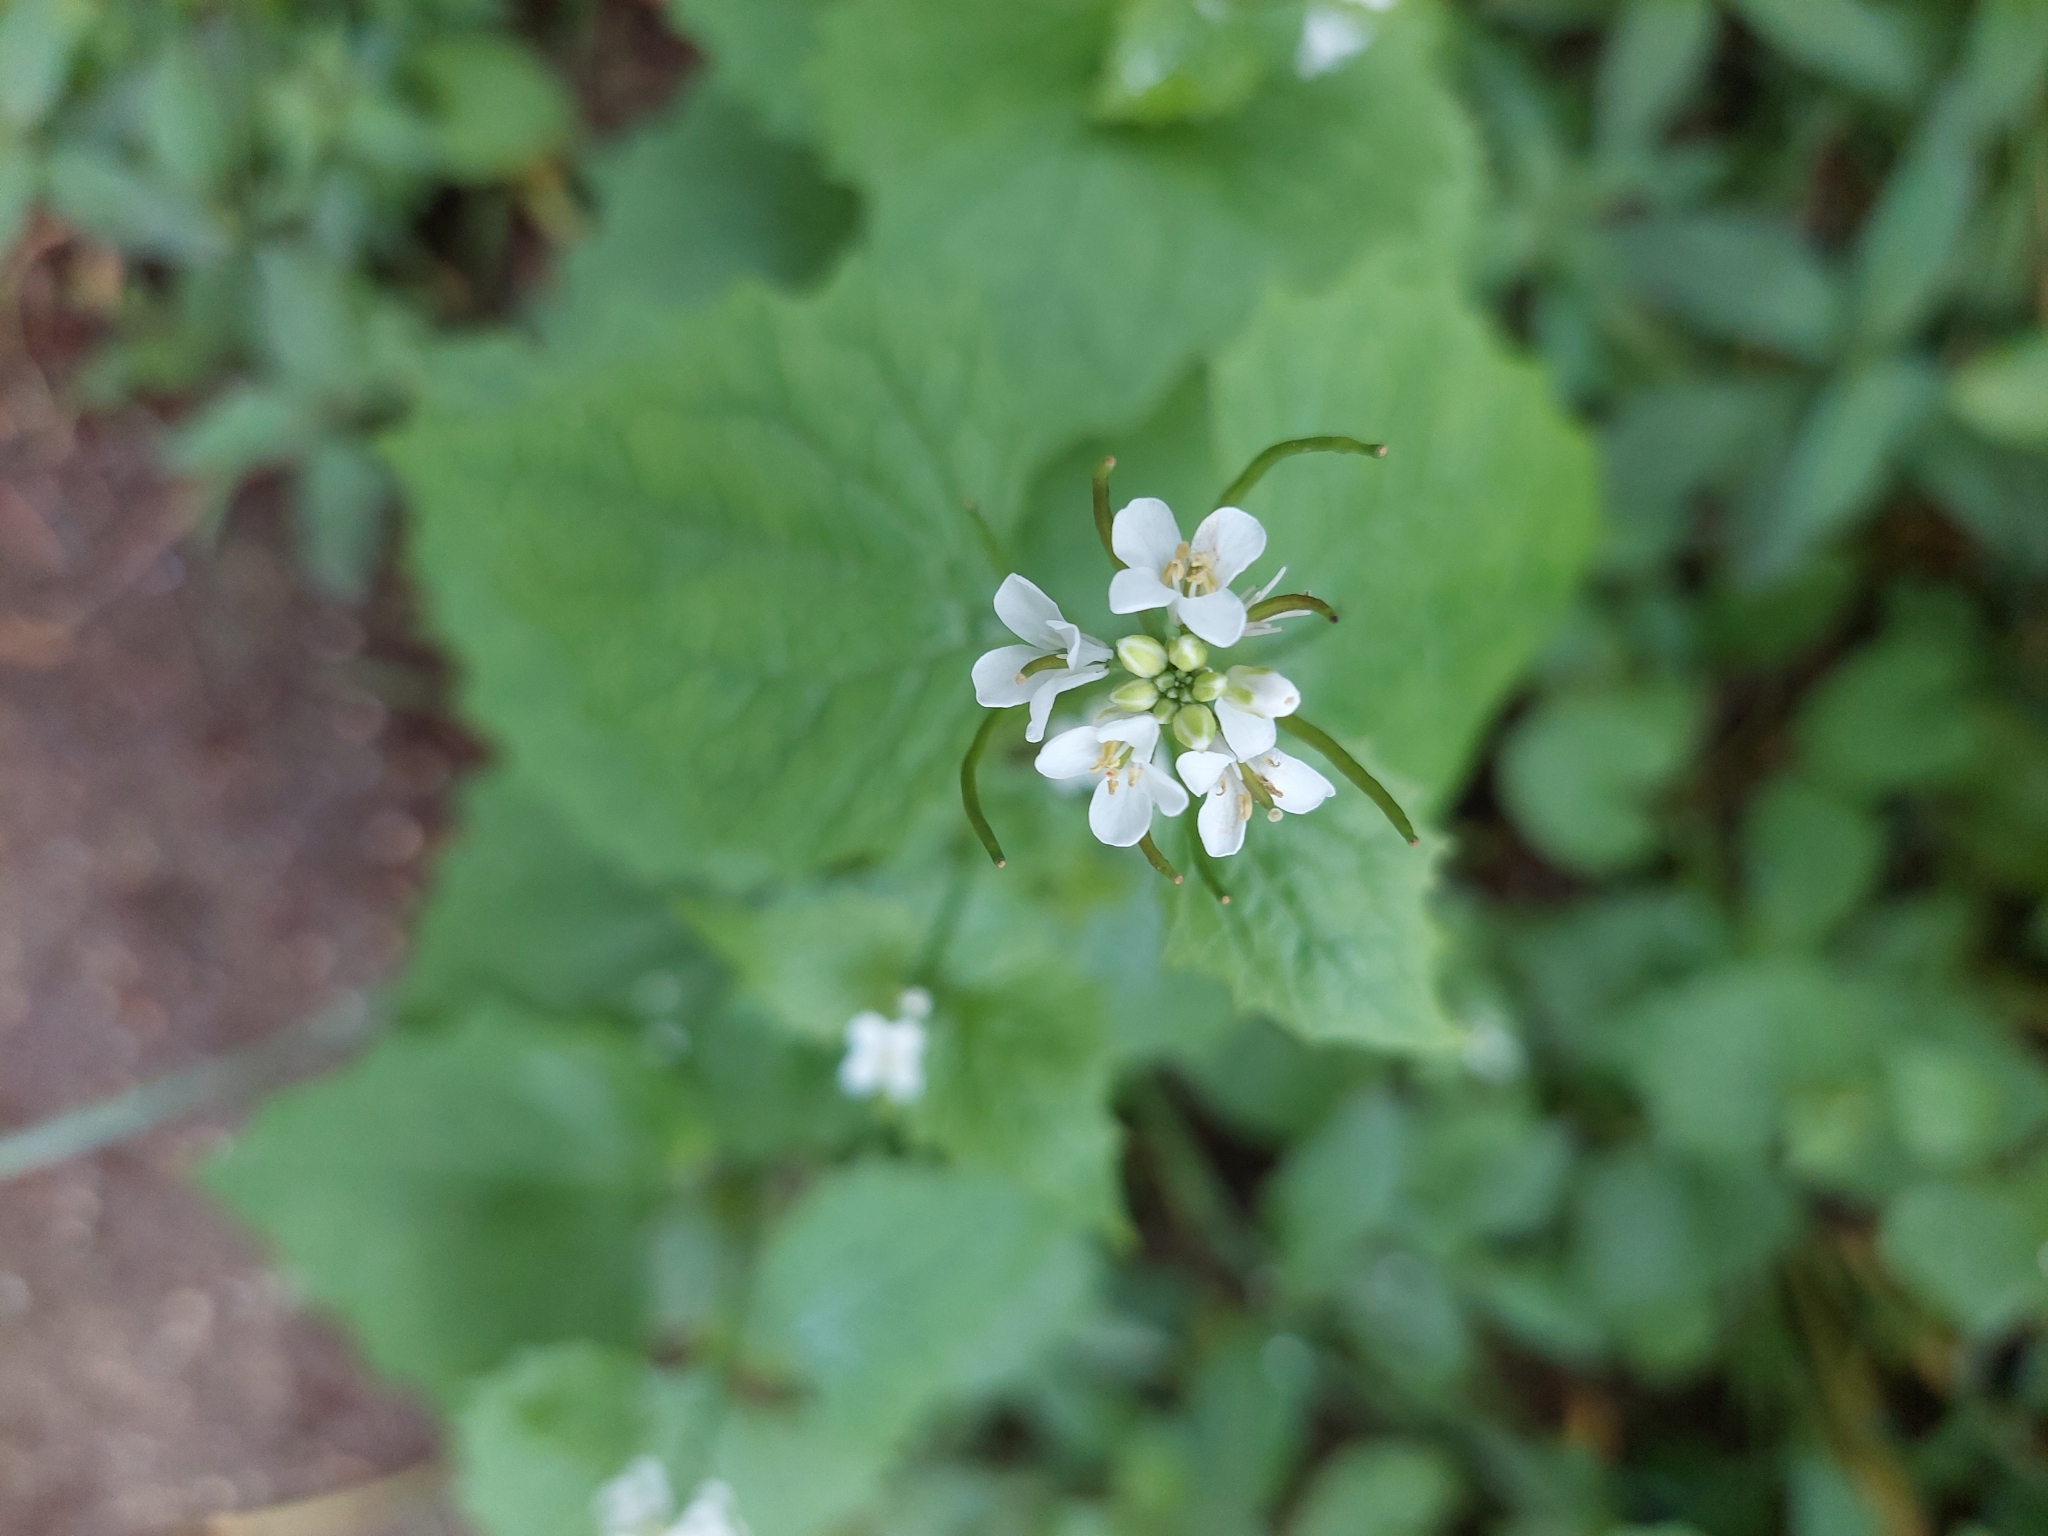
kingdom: Plantae
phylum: Tracheophyta
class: Magnoliopsida
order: Brassicales
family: Brassicaceae
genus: Alliaria
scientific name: Alliaria petiolata
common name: Garlic mustard
